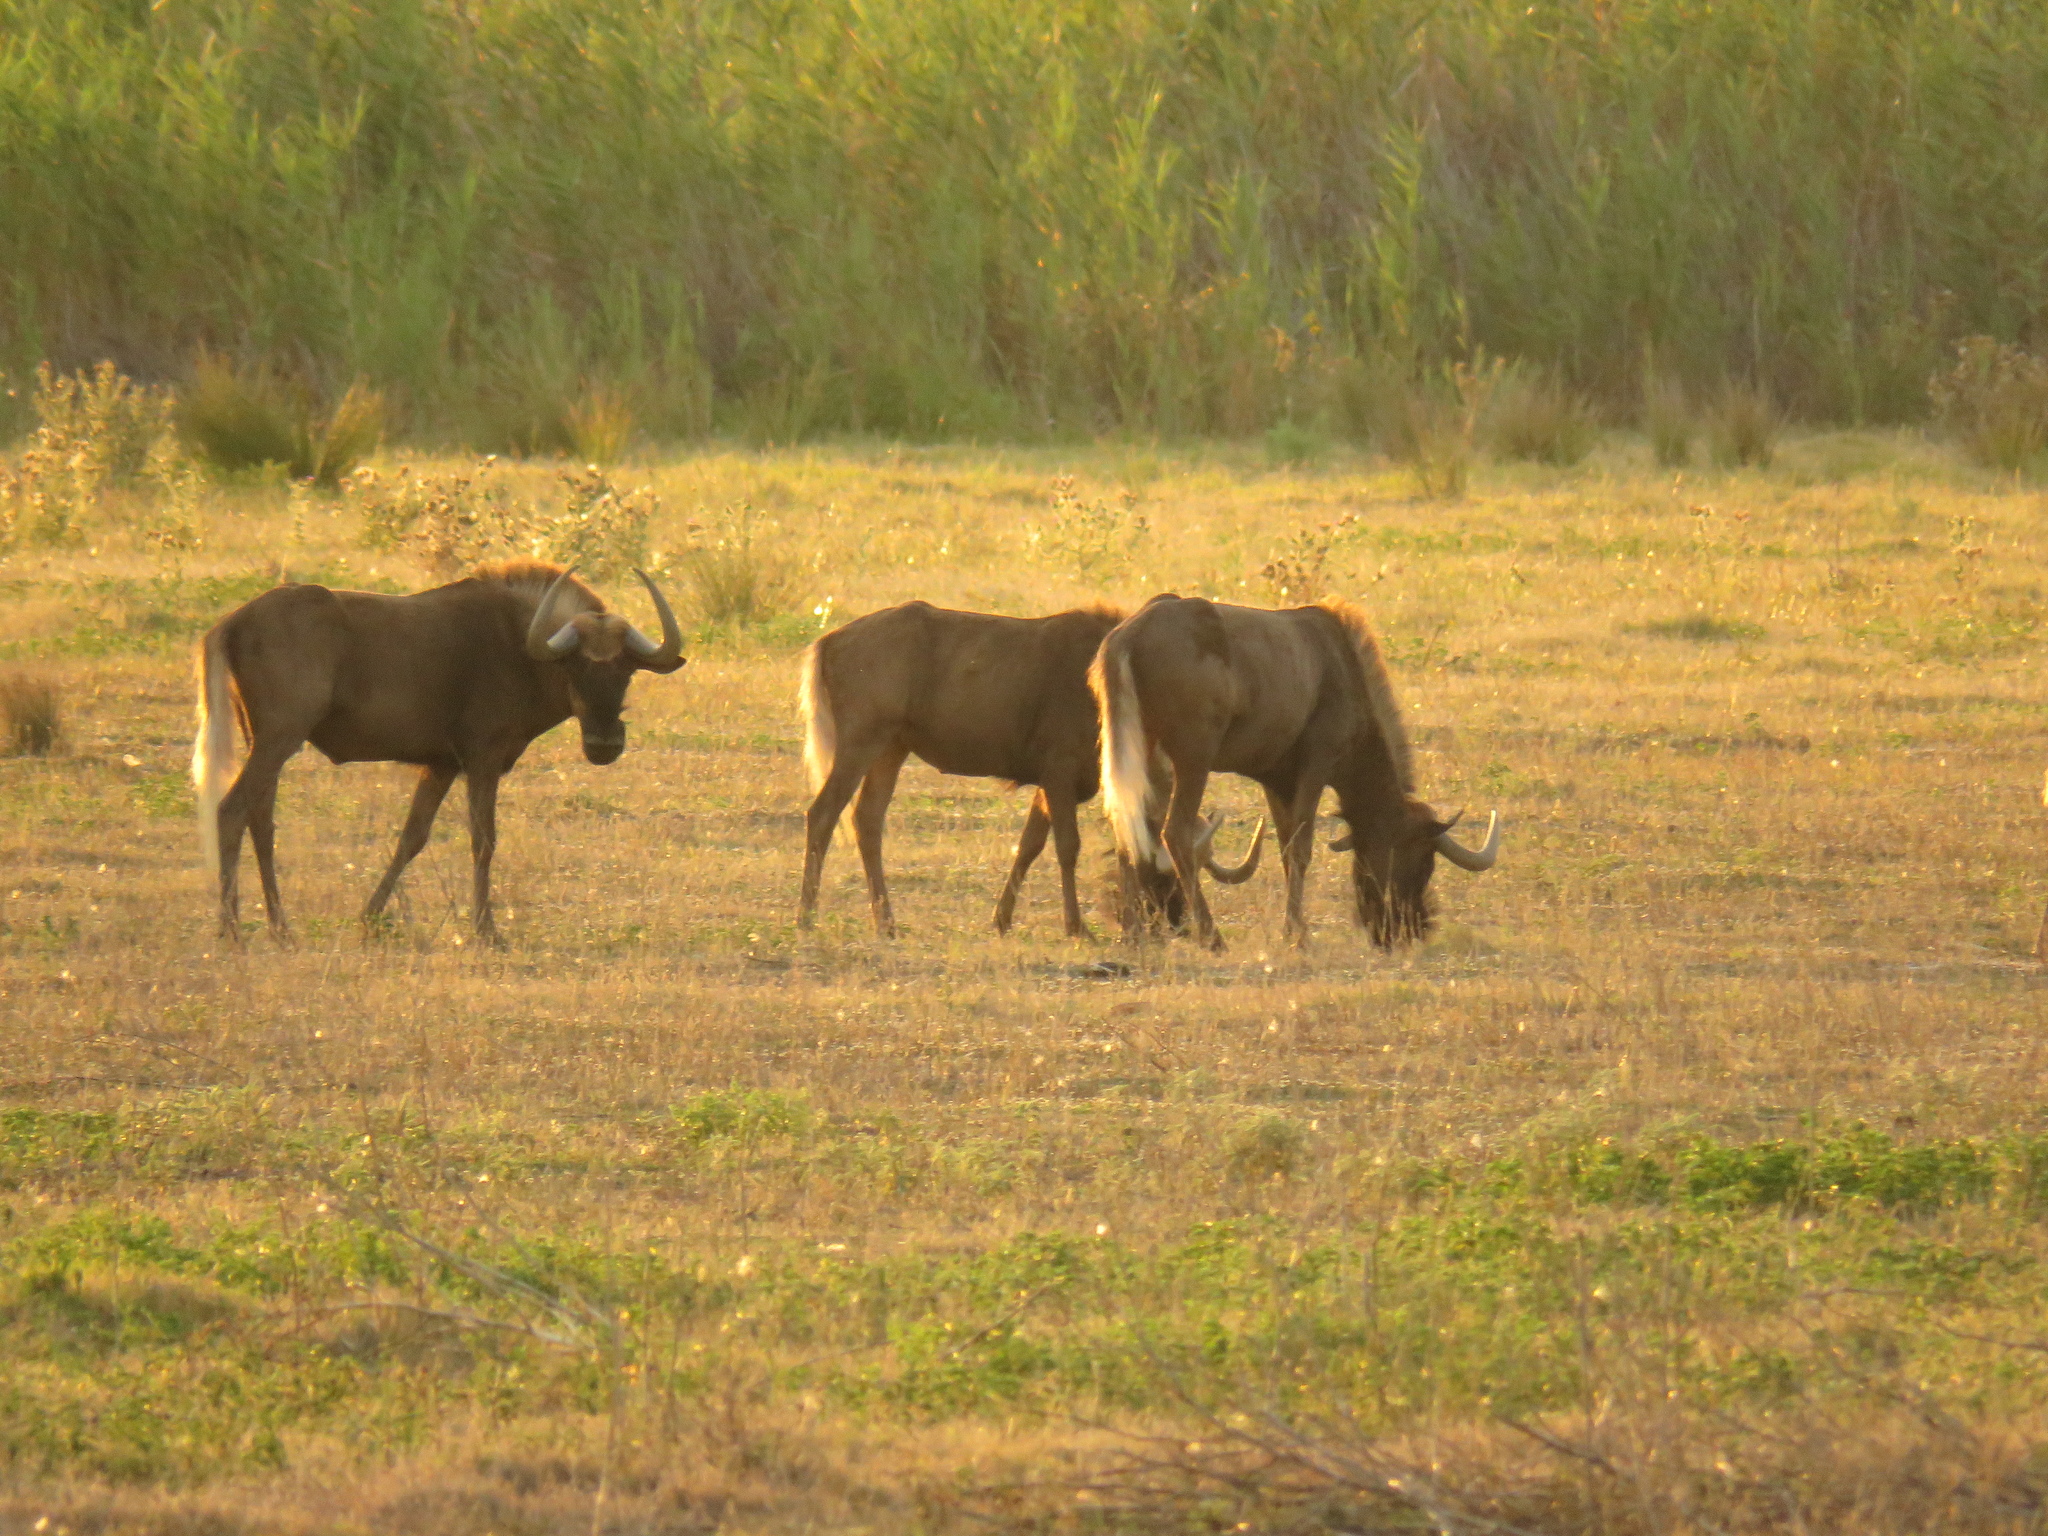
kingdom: Animalia
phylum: Chordata
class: Mammalia
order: Artiodactyla
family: Bovidae
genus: Connochaetes
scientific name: Connochaetes gnou
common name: Black wildebeest
